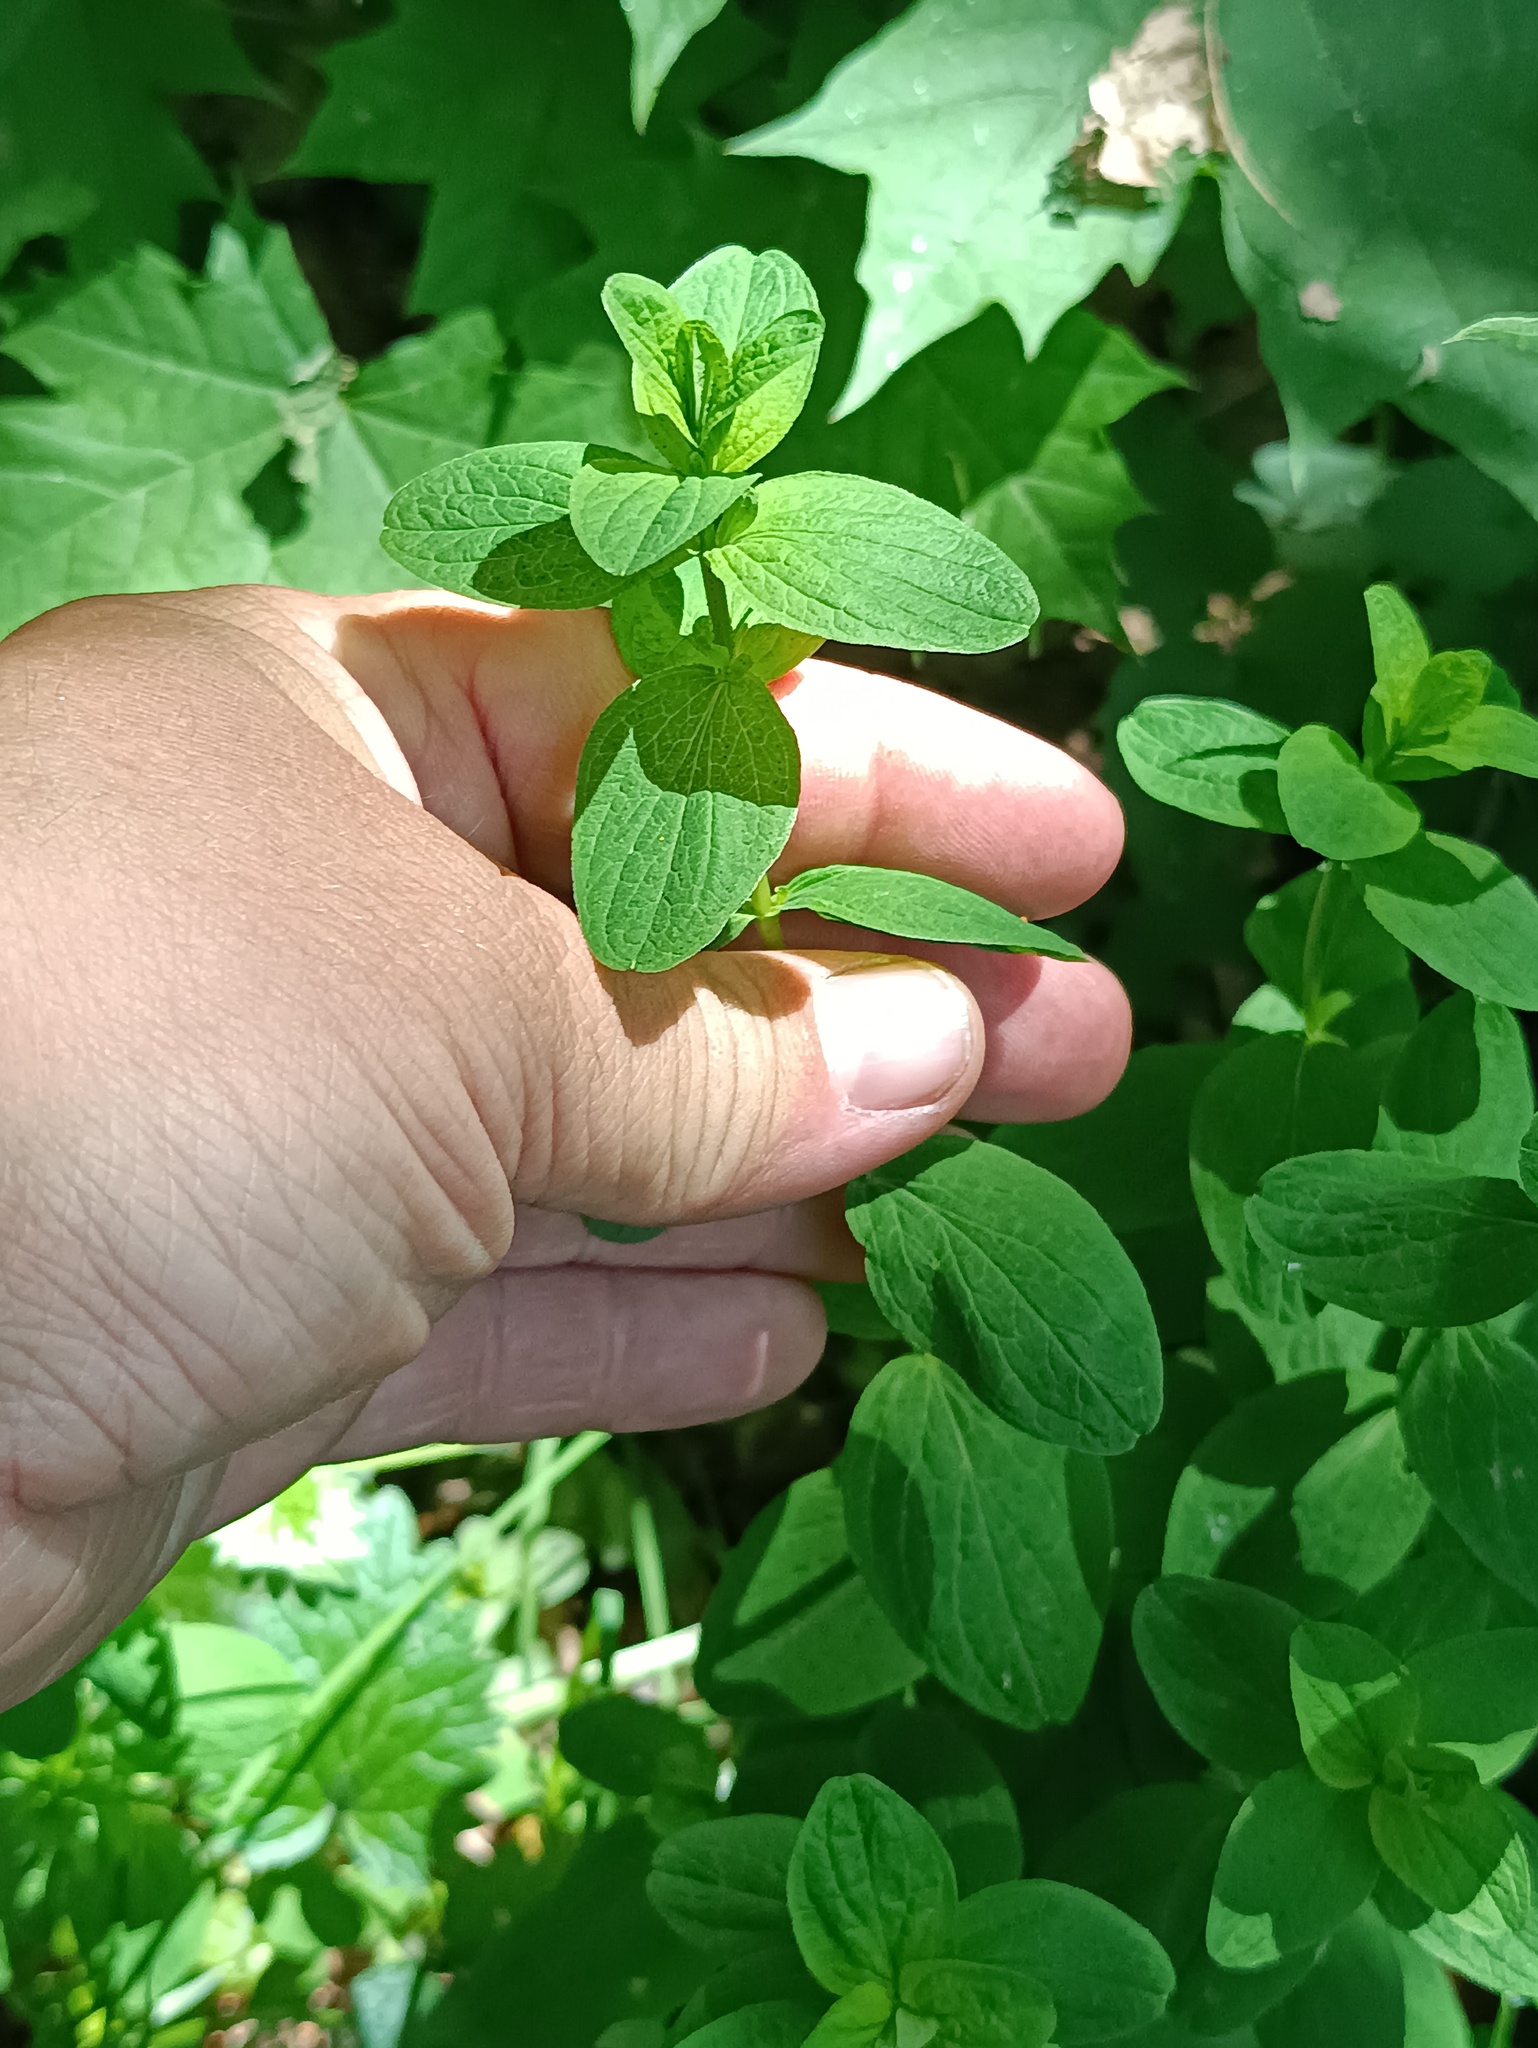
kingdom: Plantae
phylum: Tracheophyta
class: Magnoliopsida
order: Malpighiales
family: Hypericaceae
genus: Hypericum
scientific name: Hypericum maculatum
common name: Imperforate st. john's-wort
